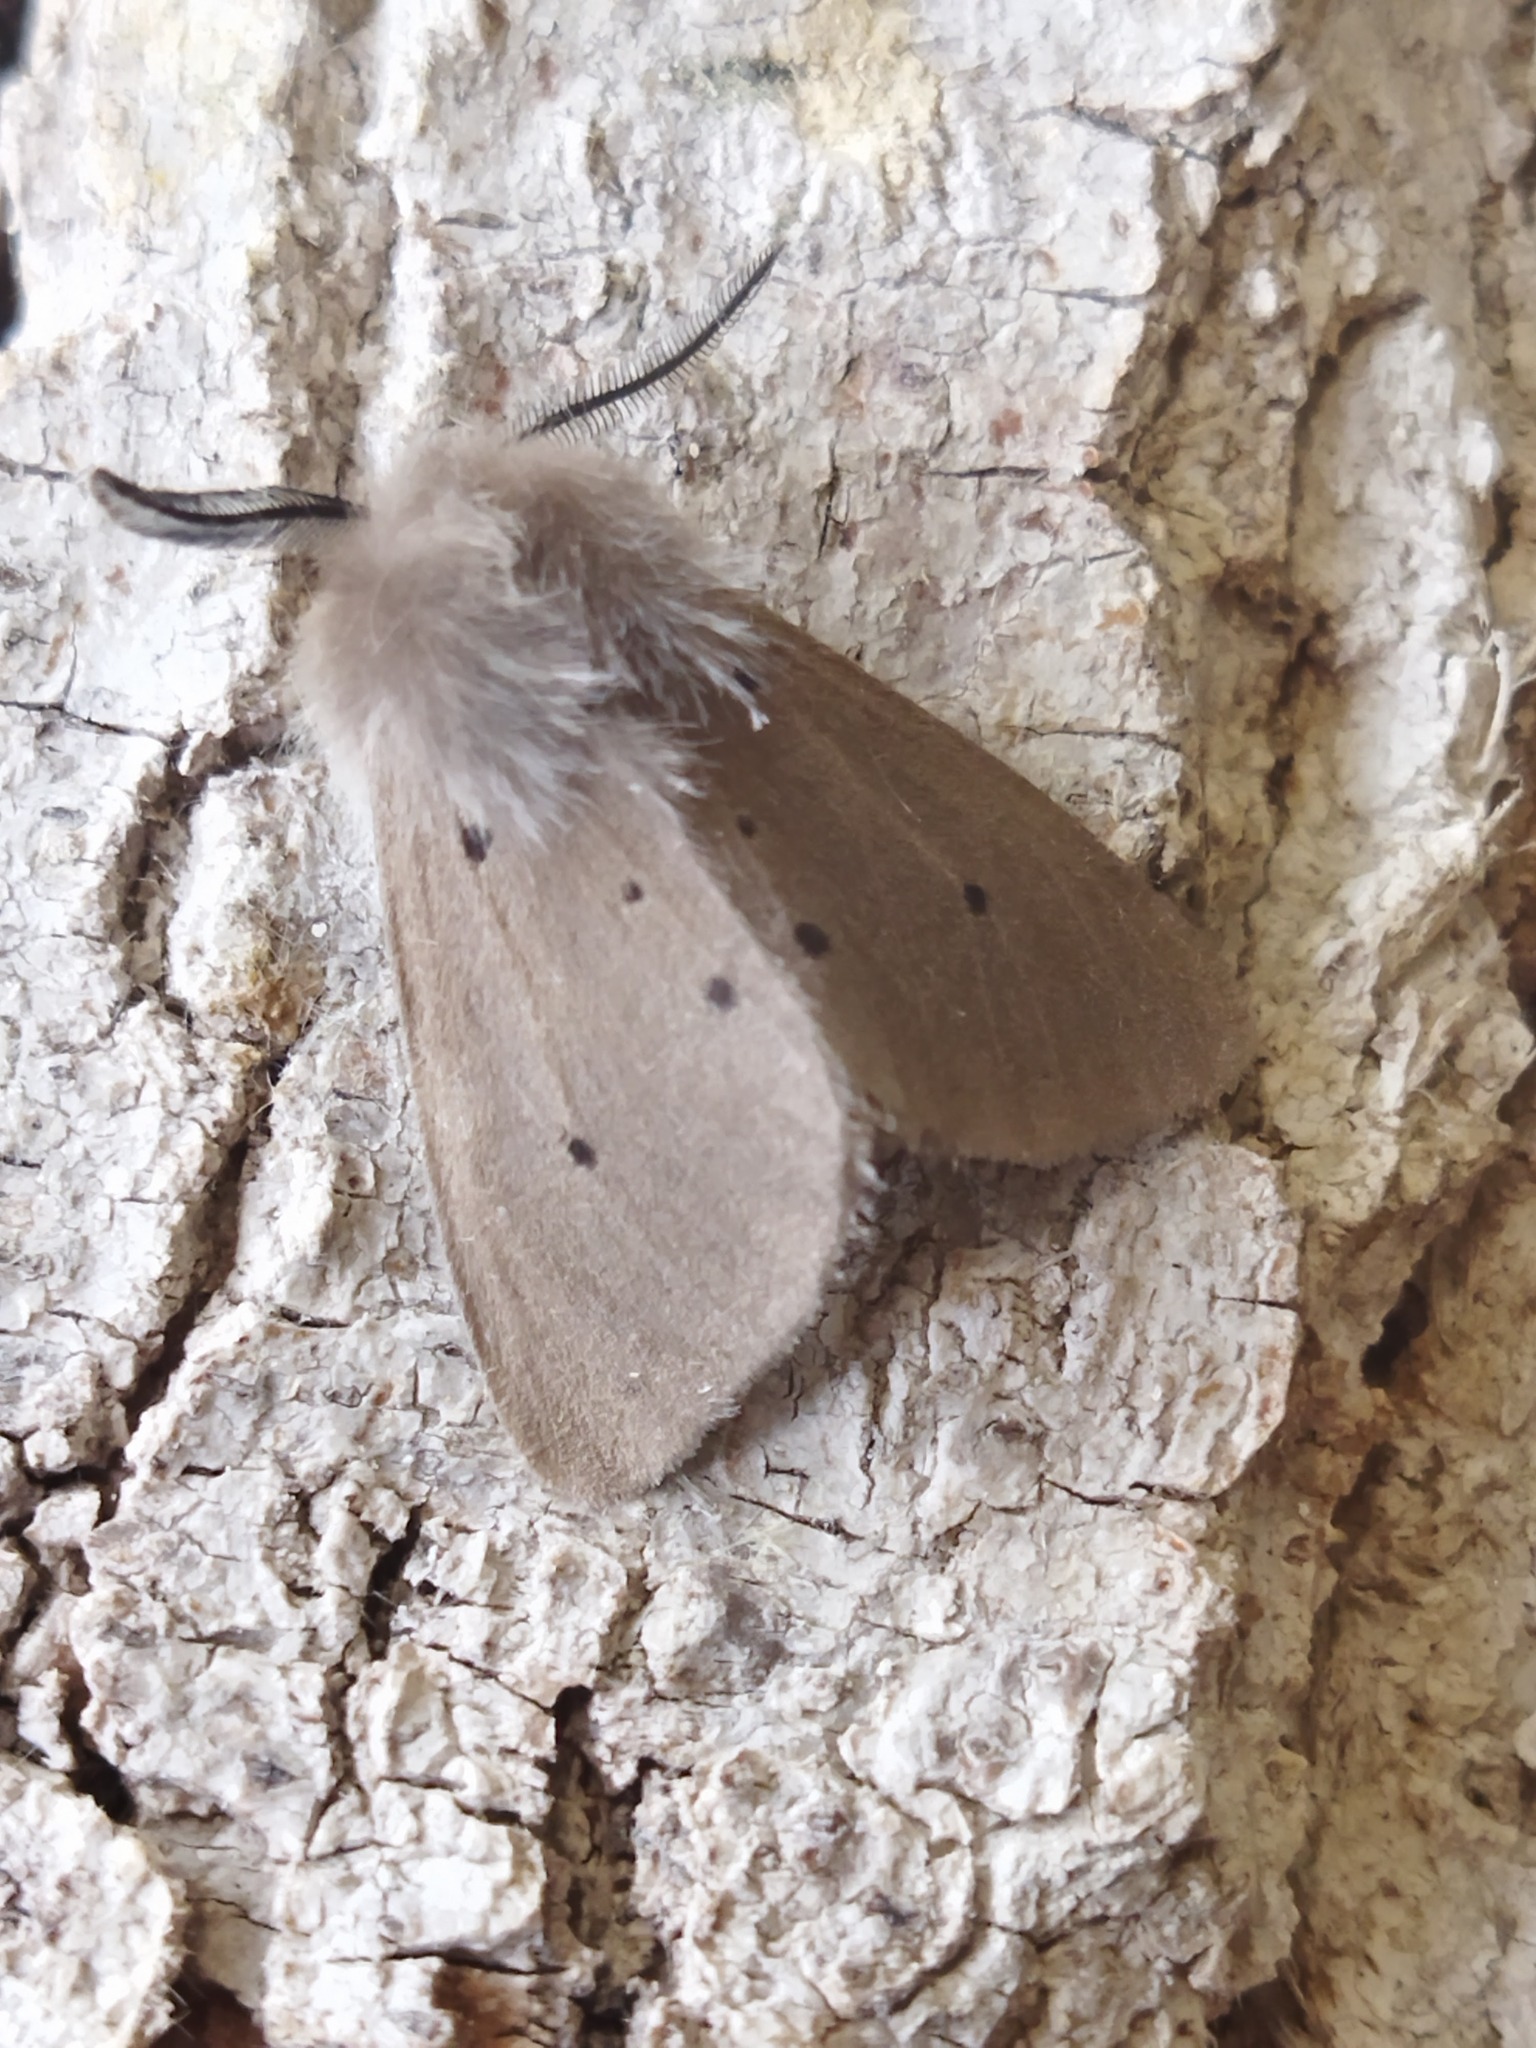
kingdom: Animalia
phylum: Arthropoda
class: Insecta
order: Lepidoptera
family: Erebidae
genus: Diaphora
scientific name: Diaphora mendica
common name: Muslin moth
